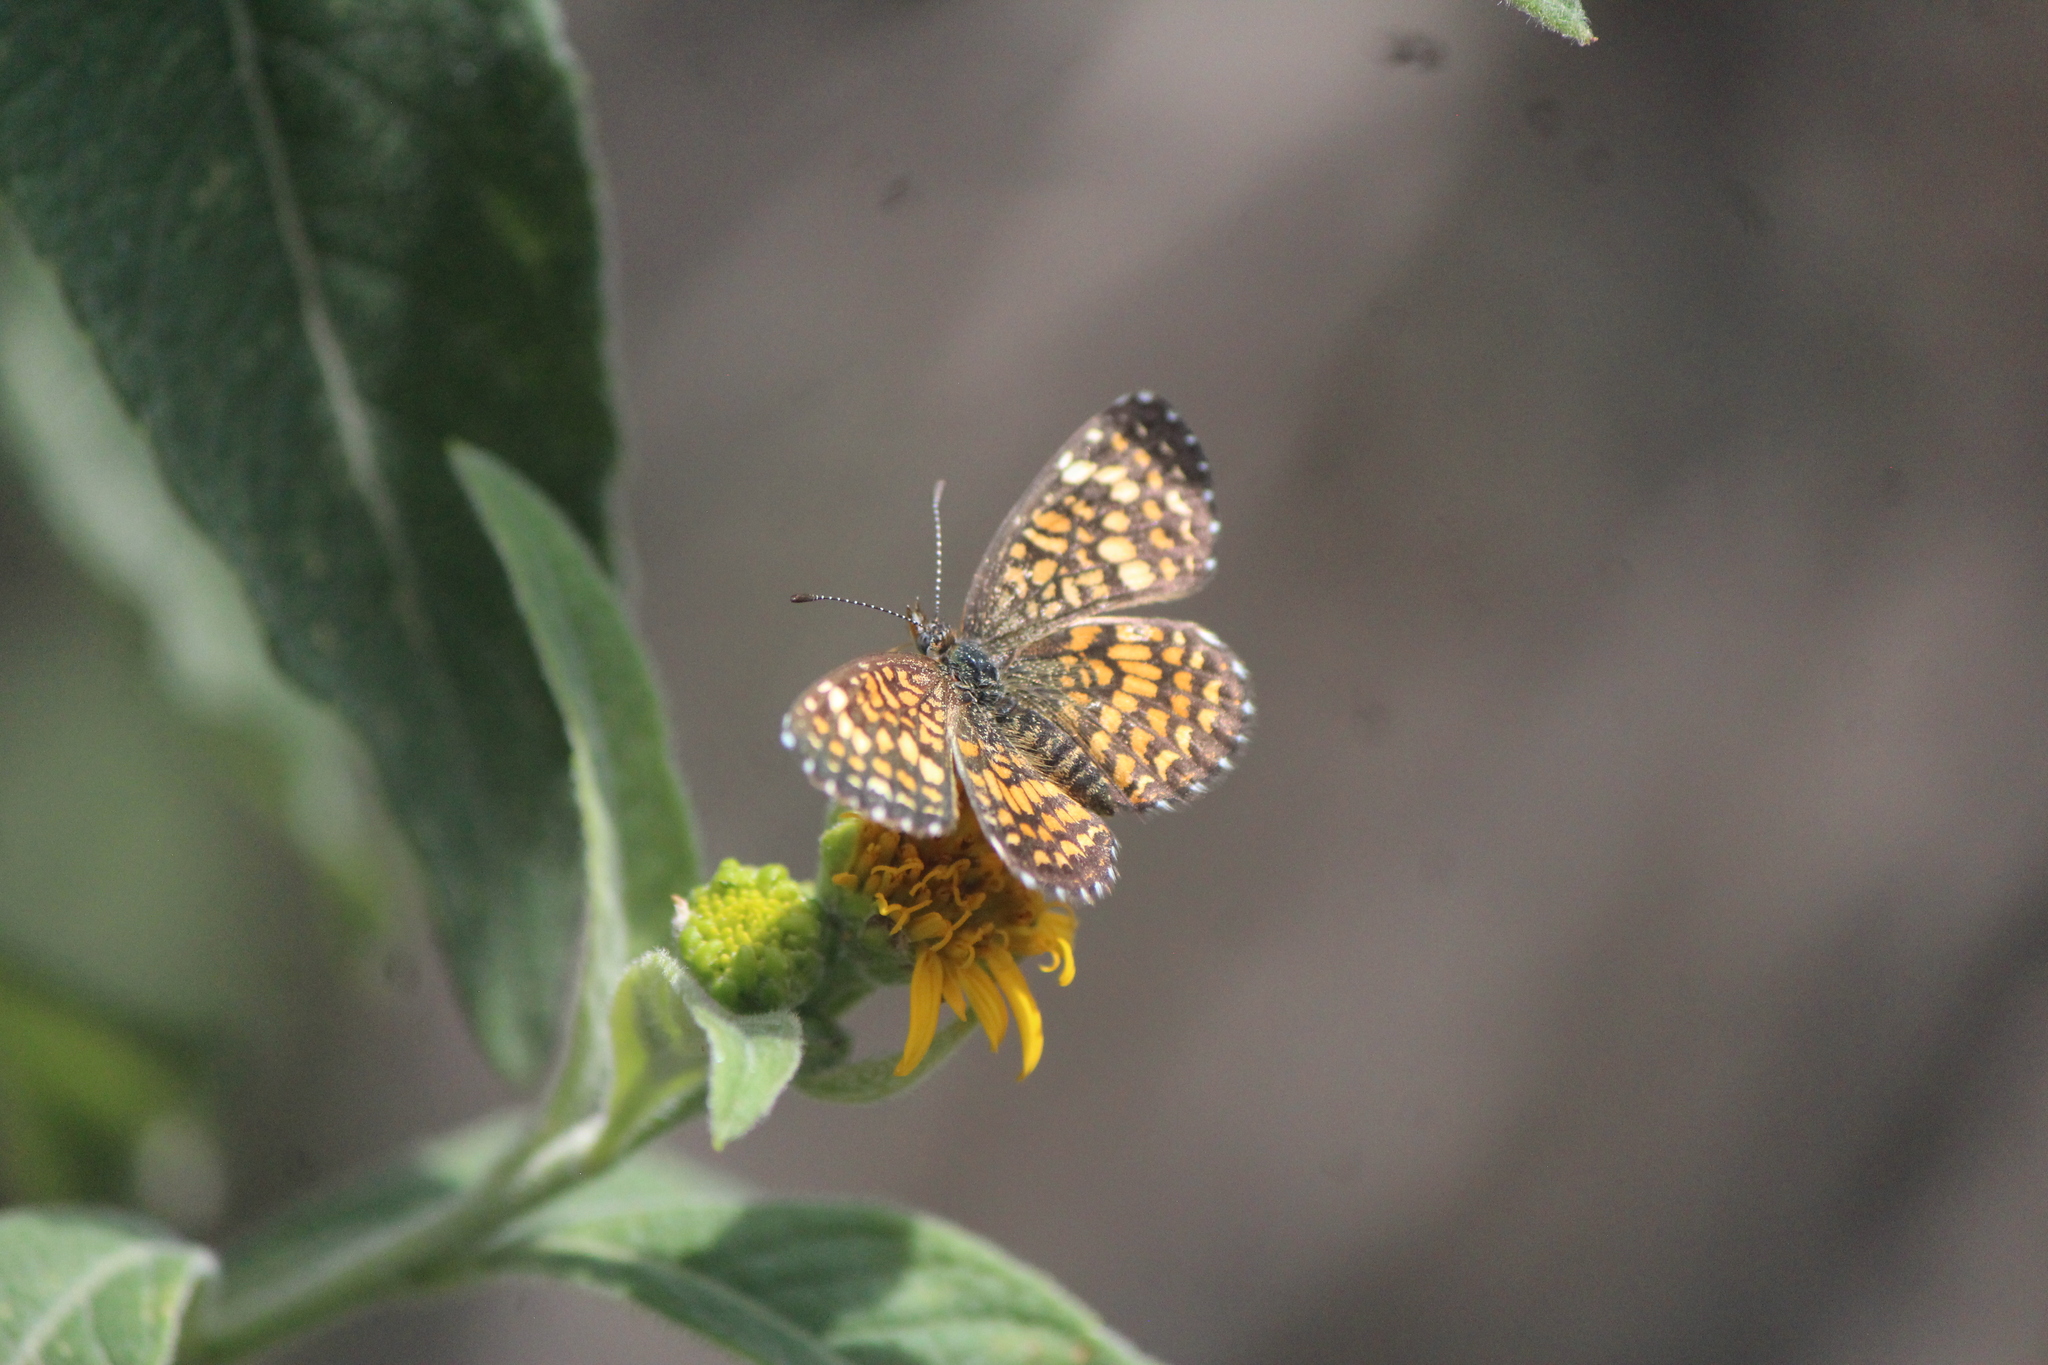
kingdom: Animalia
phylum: Arthropoda
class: Insecta
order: Lepidoptera
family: Nymphalidae
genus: Texola
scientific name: Texola elada
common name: Elada checkerspot
